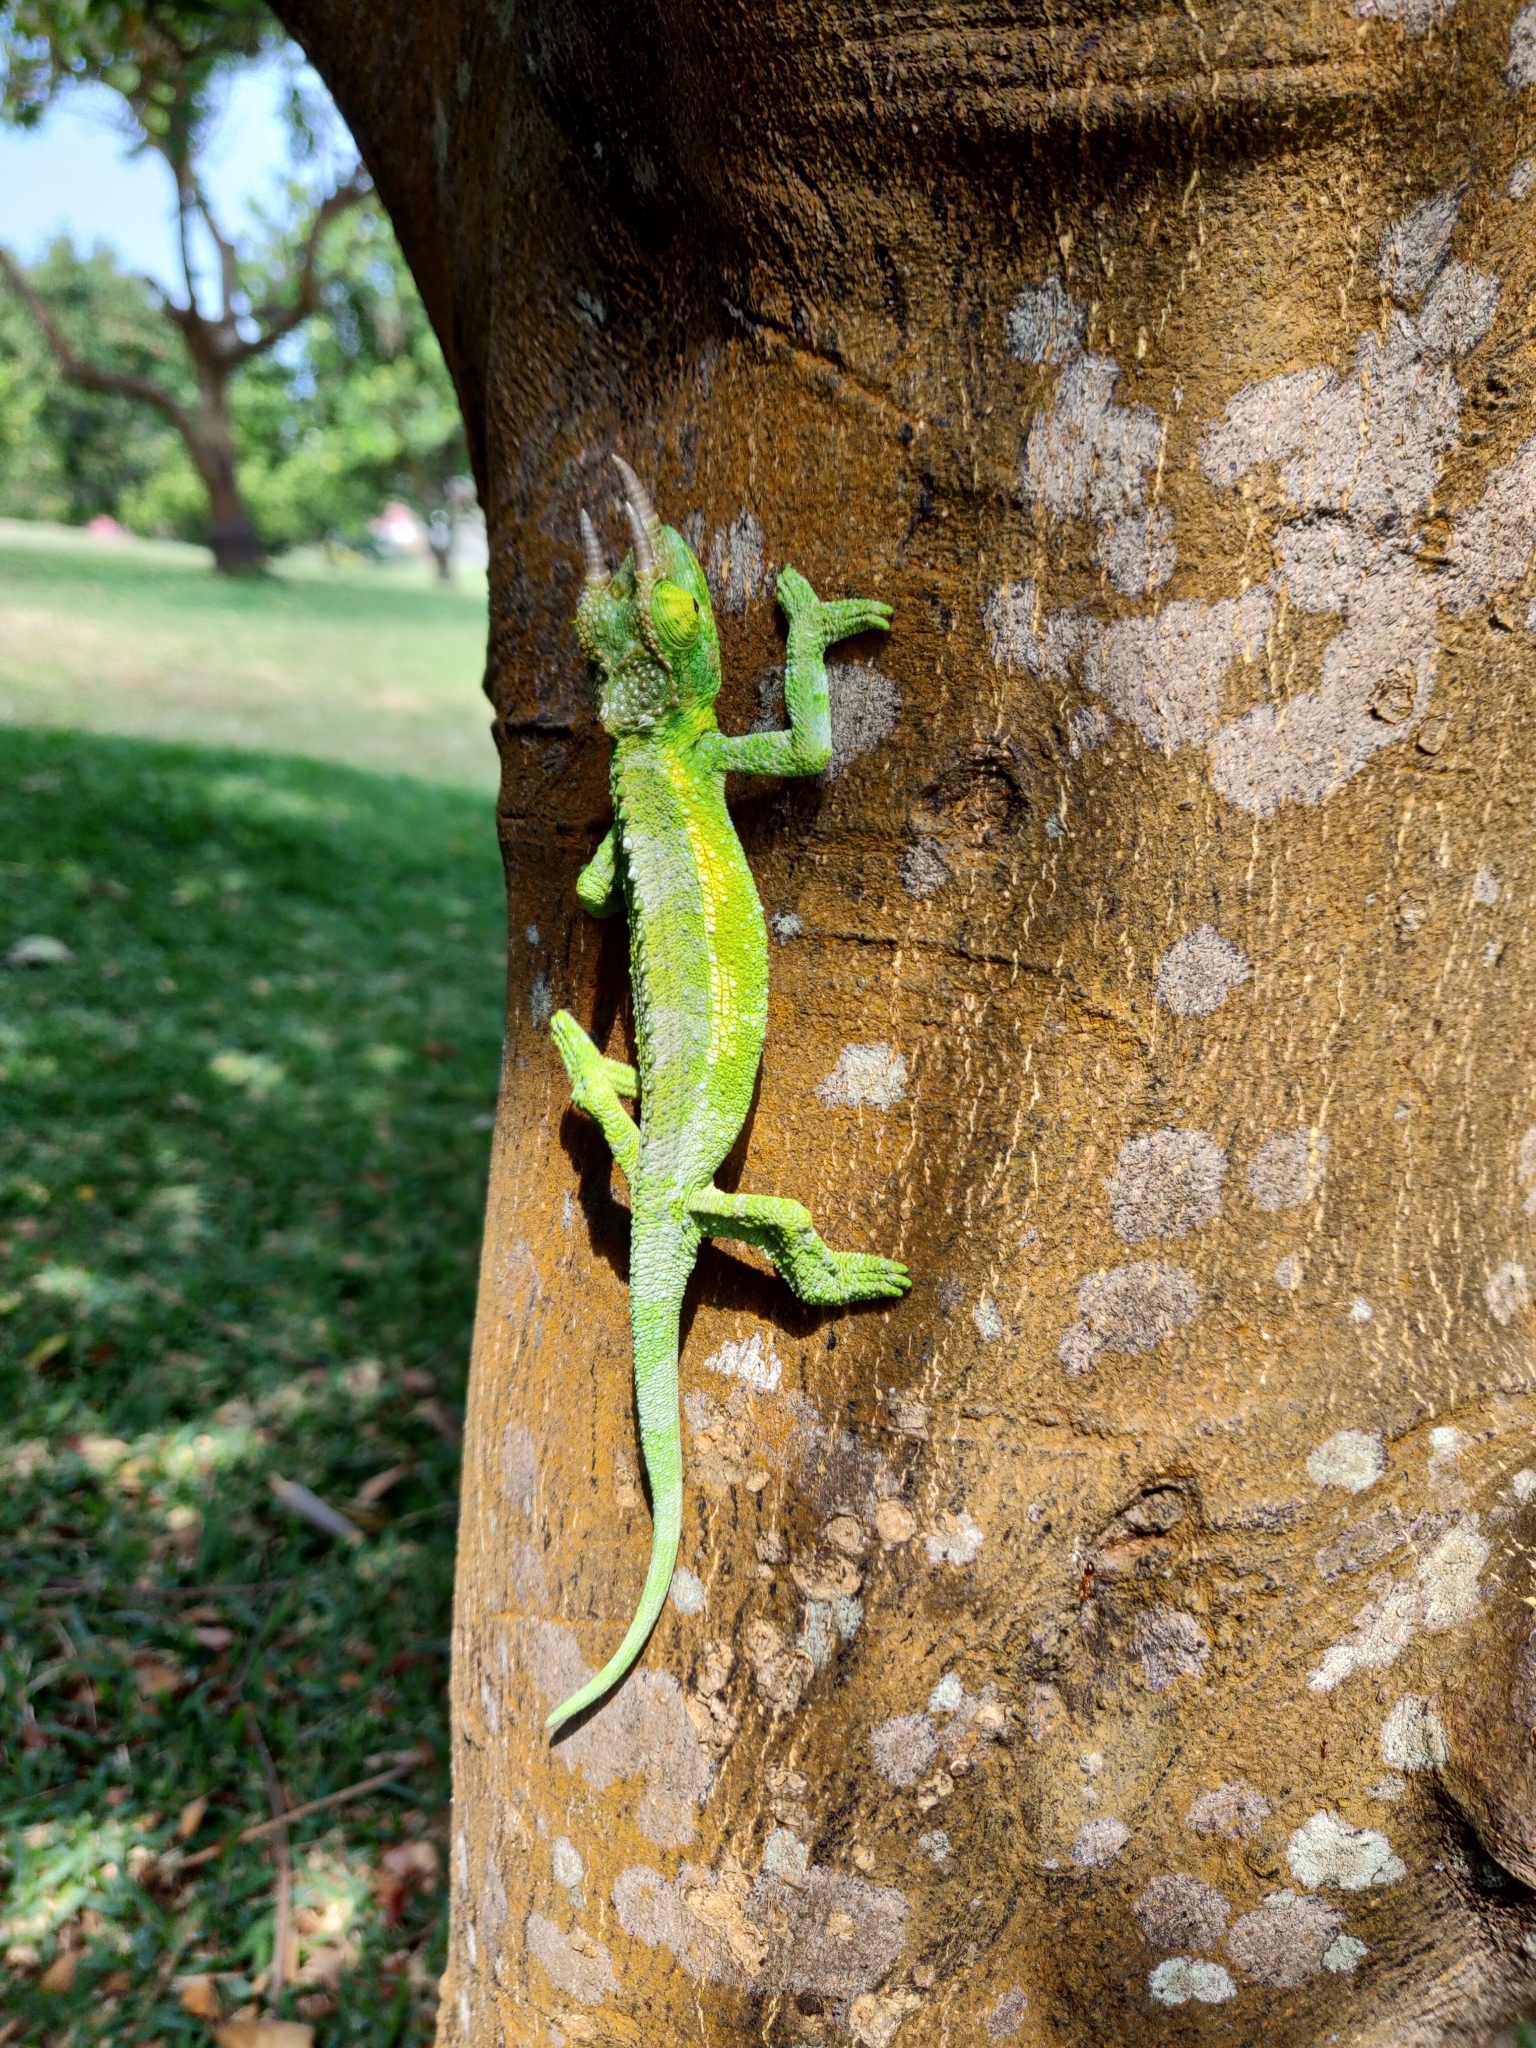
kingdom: Animalia
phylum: Chordata
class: Squamata
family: Chamaeleonidae
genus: Trioceros
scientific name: Trioceros jacksonii
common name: Jackson's chameleon
